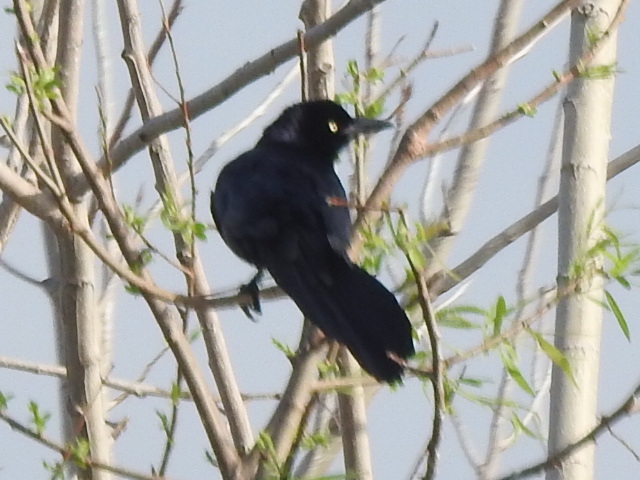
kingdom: Animalia
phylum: Chordata
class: Aves
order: Passeriformes
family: Icteridae
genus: Quiscalus
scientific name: Quiscalus mexicanus
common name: Great-tailed grackle
